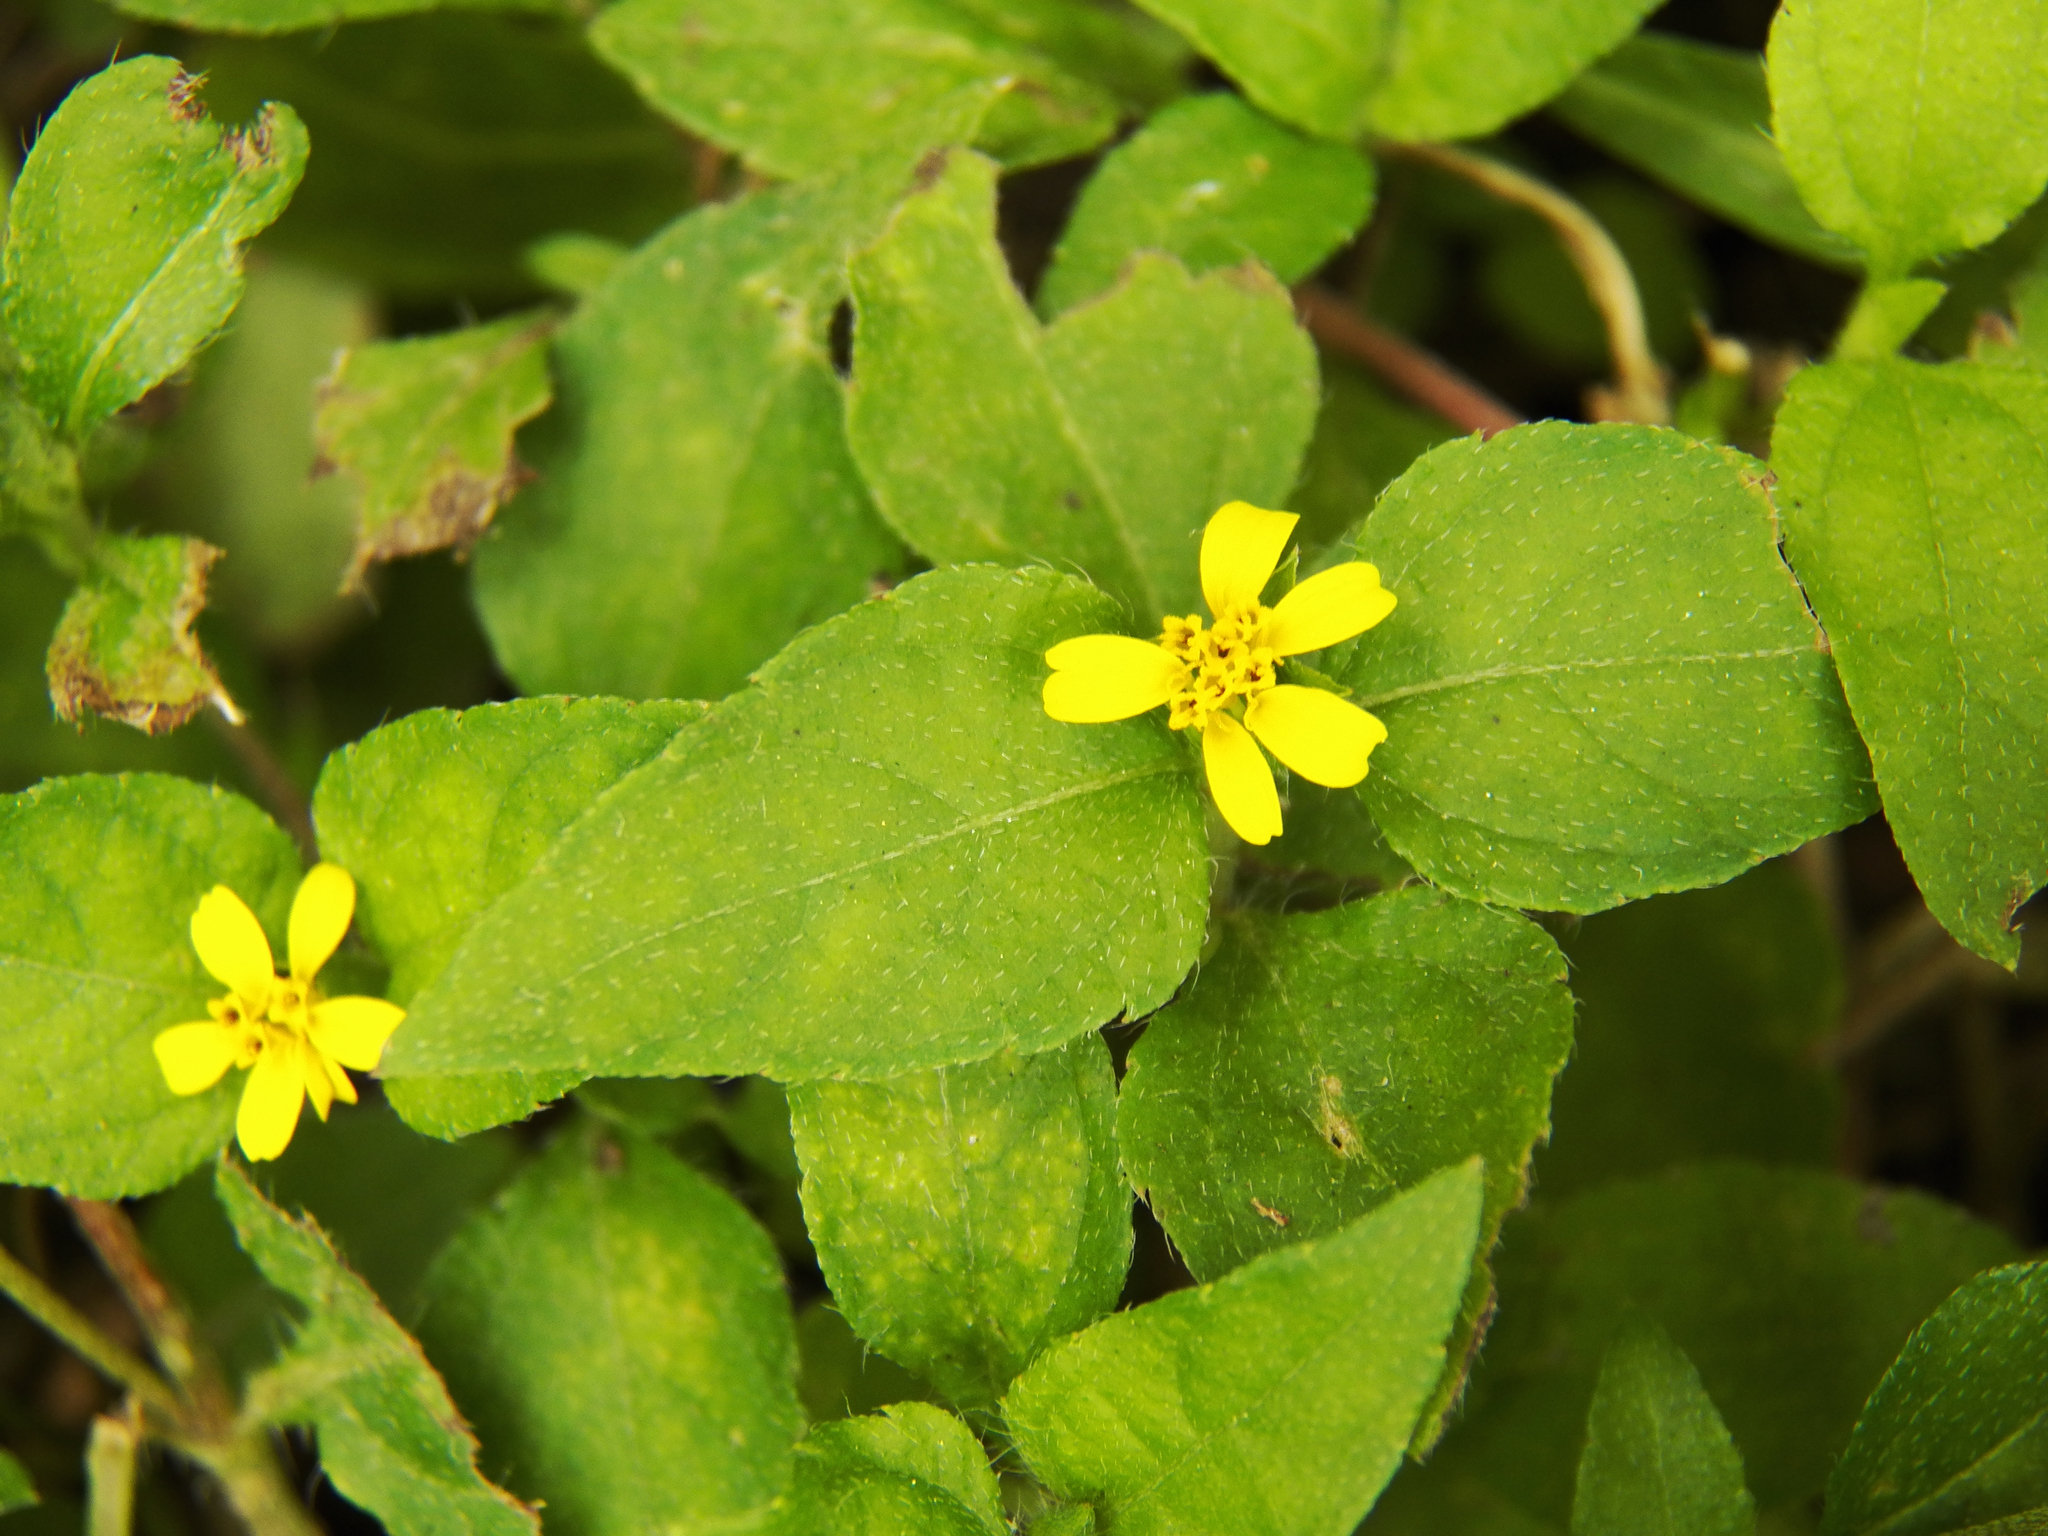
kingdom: Plantae
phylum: Tracheophyta
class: Magnoliopsida
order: Asterales
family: Asteraceae
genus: Calyptocarpus
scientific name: Calyptocarpus vialis
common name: Straggler daisy
